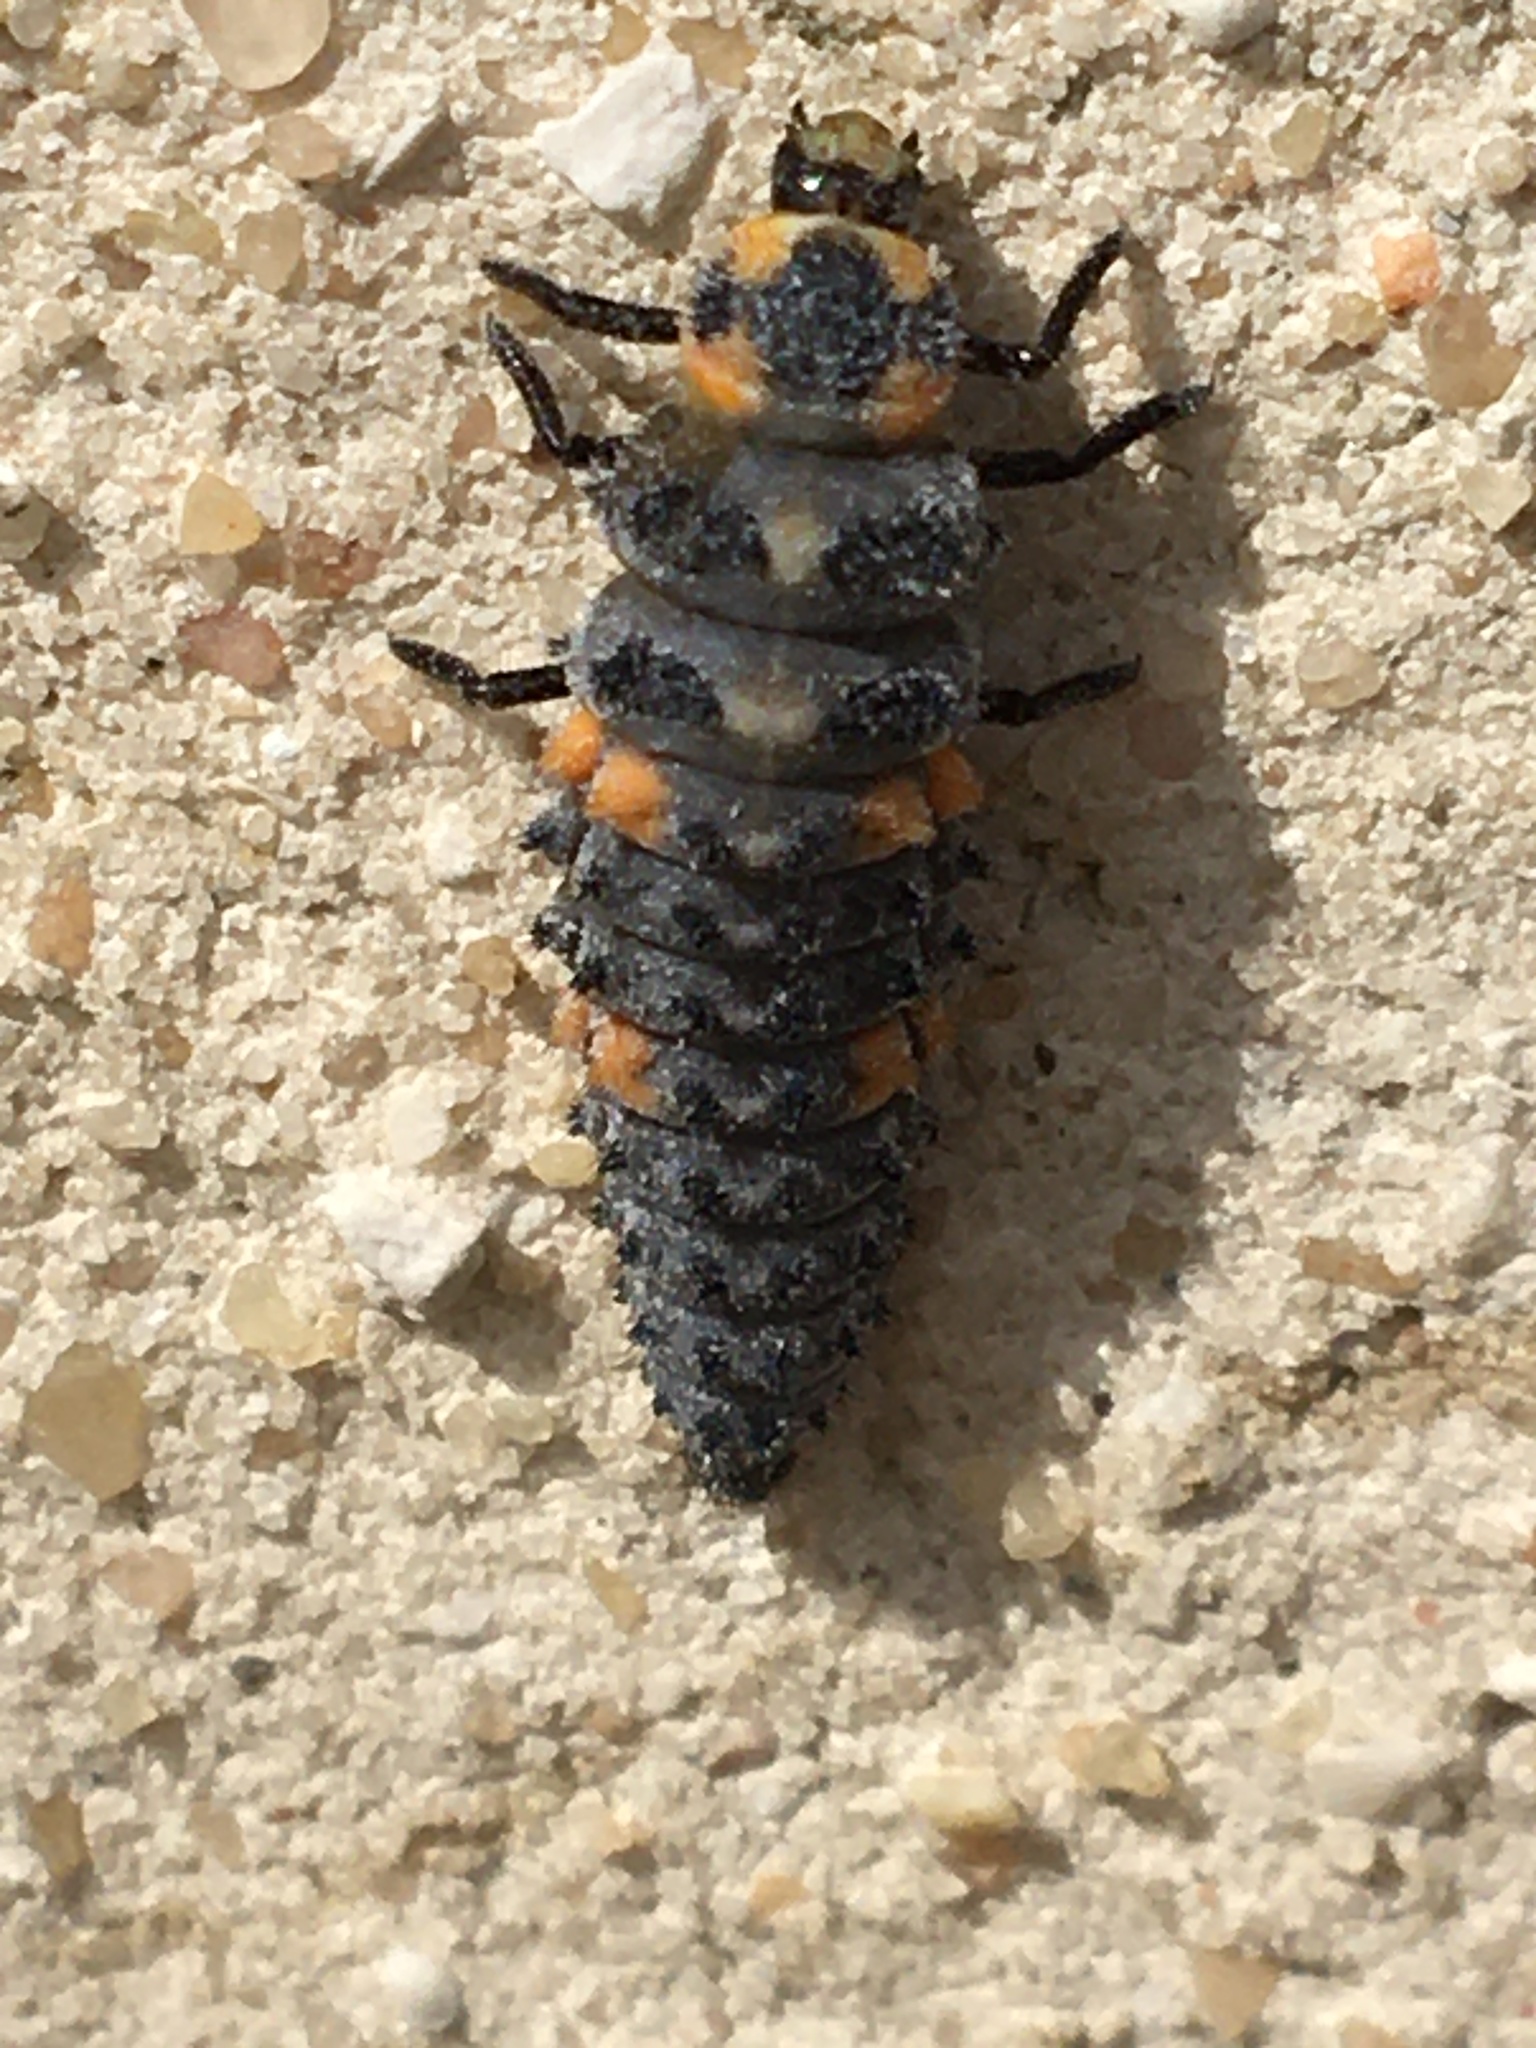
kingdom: Animalia
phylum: Arthropoda
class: Insecta
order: Coleoptera
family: Coccinellidae
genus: Coccinella
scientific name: Coccinella septempunctata
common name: Sevenspotted lady beetle
